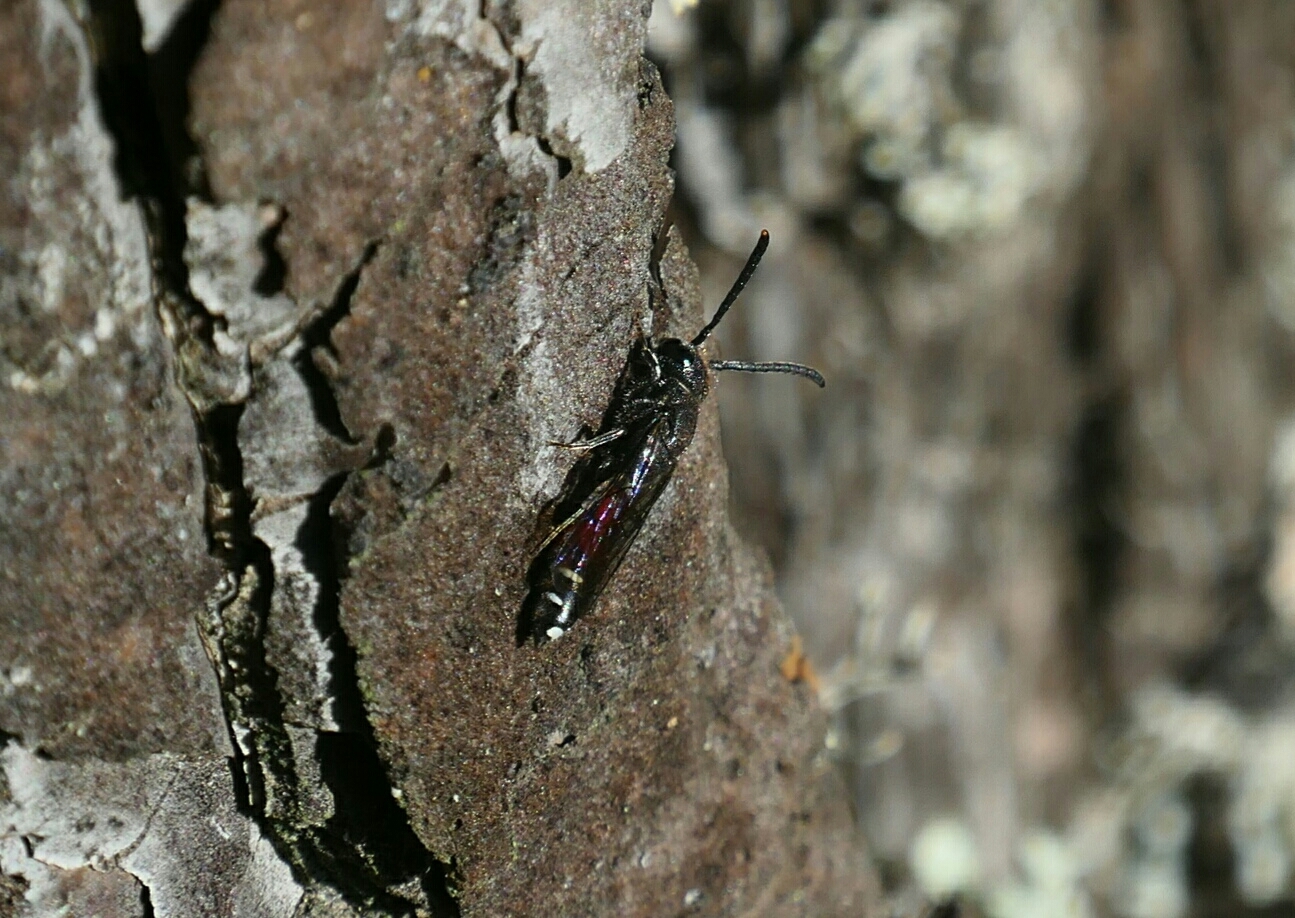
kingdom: Animalia
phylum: Arthropoda
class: Insecta
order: Hymenoptera
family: Sapygidae
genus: Sapyga
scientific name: Sapyga quinquepunctata
